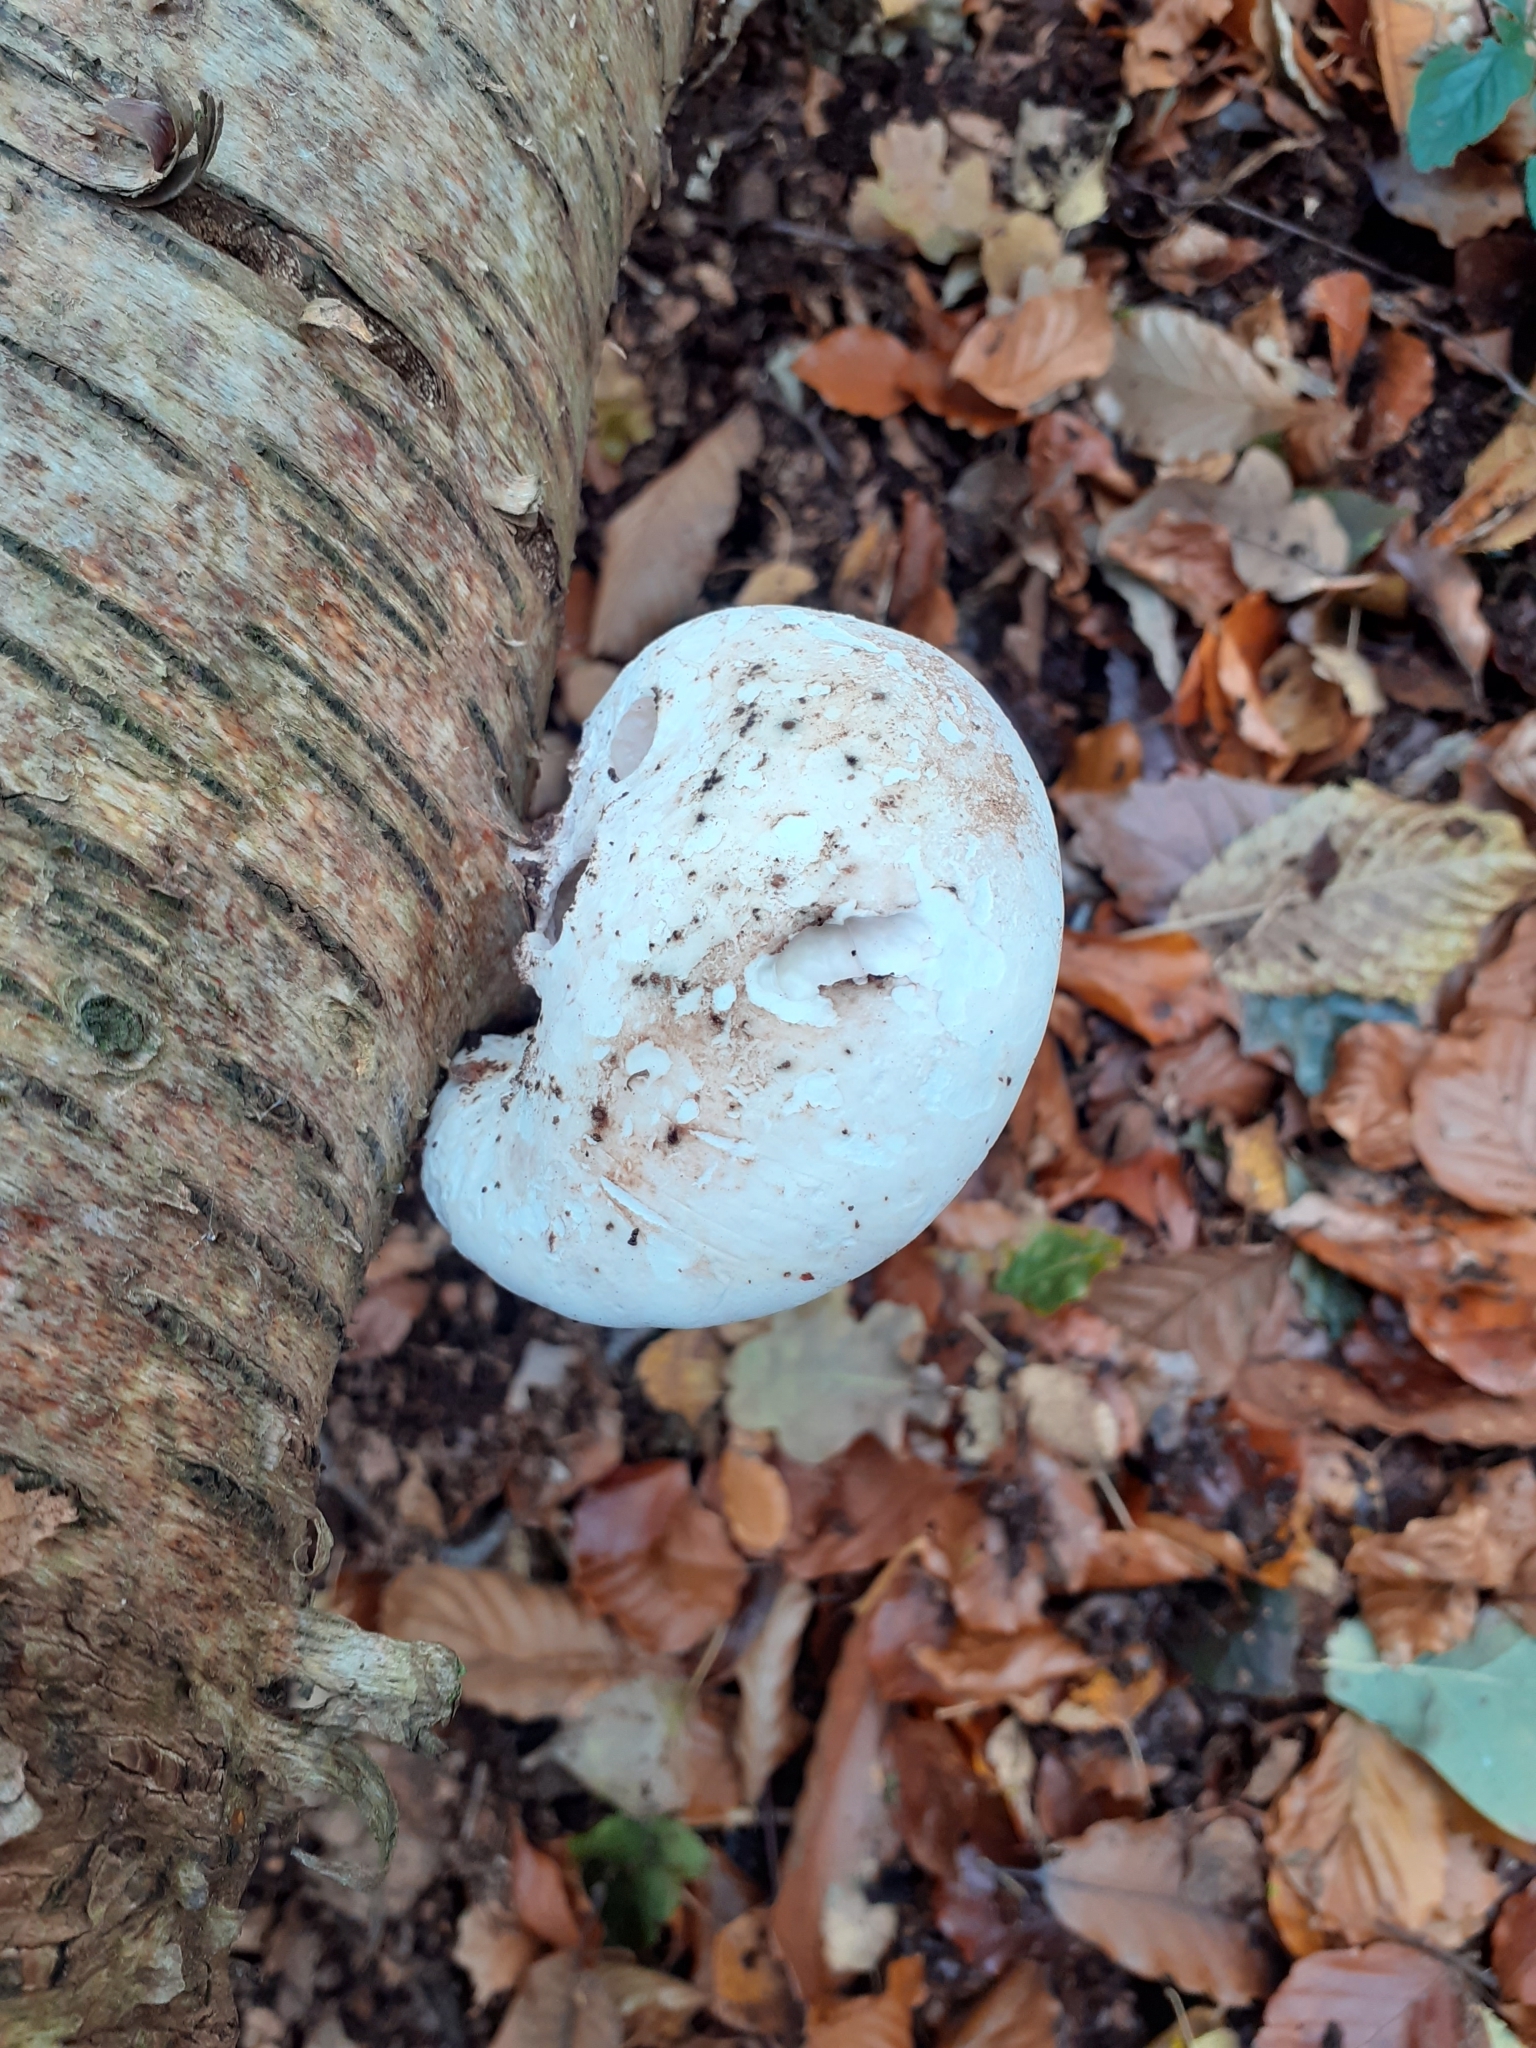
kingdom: Fungi
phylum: Basidiomycota
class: Agaricomycetes
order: Polyporales
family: Fomitopsidaceae
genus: Fomitopsis
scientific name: Fomitopsis betulina
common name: Birch polypore
